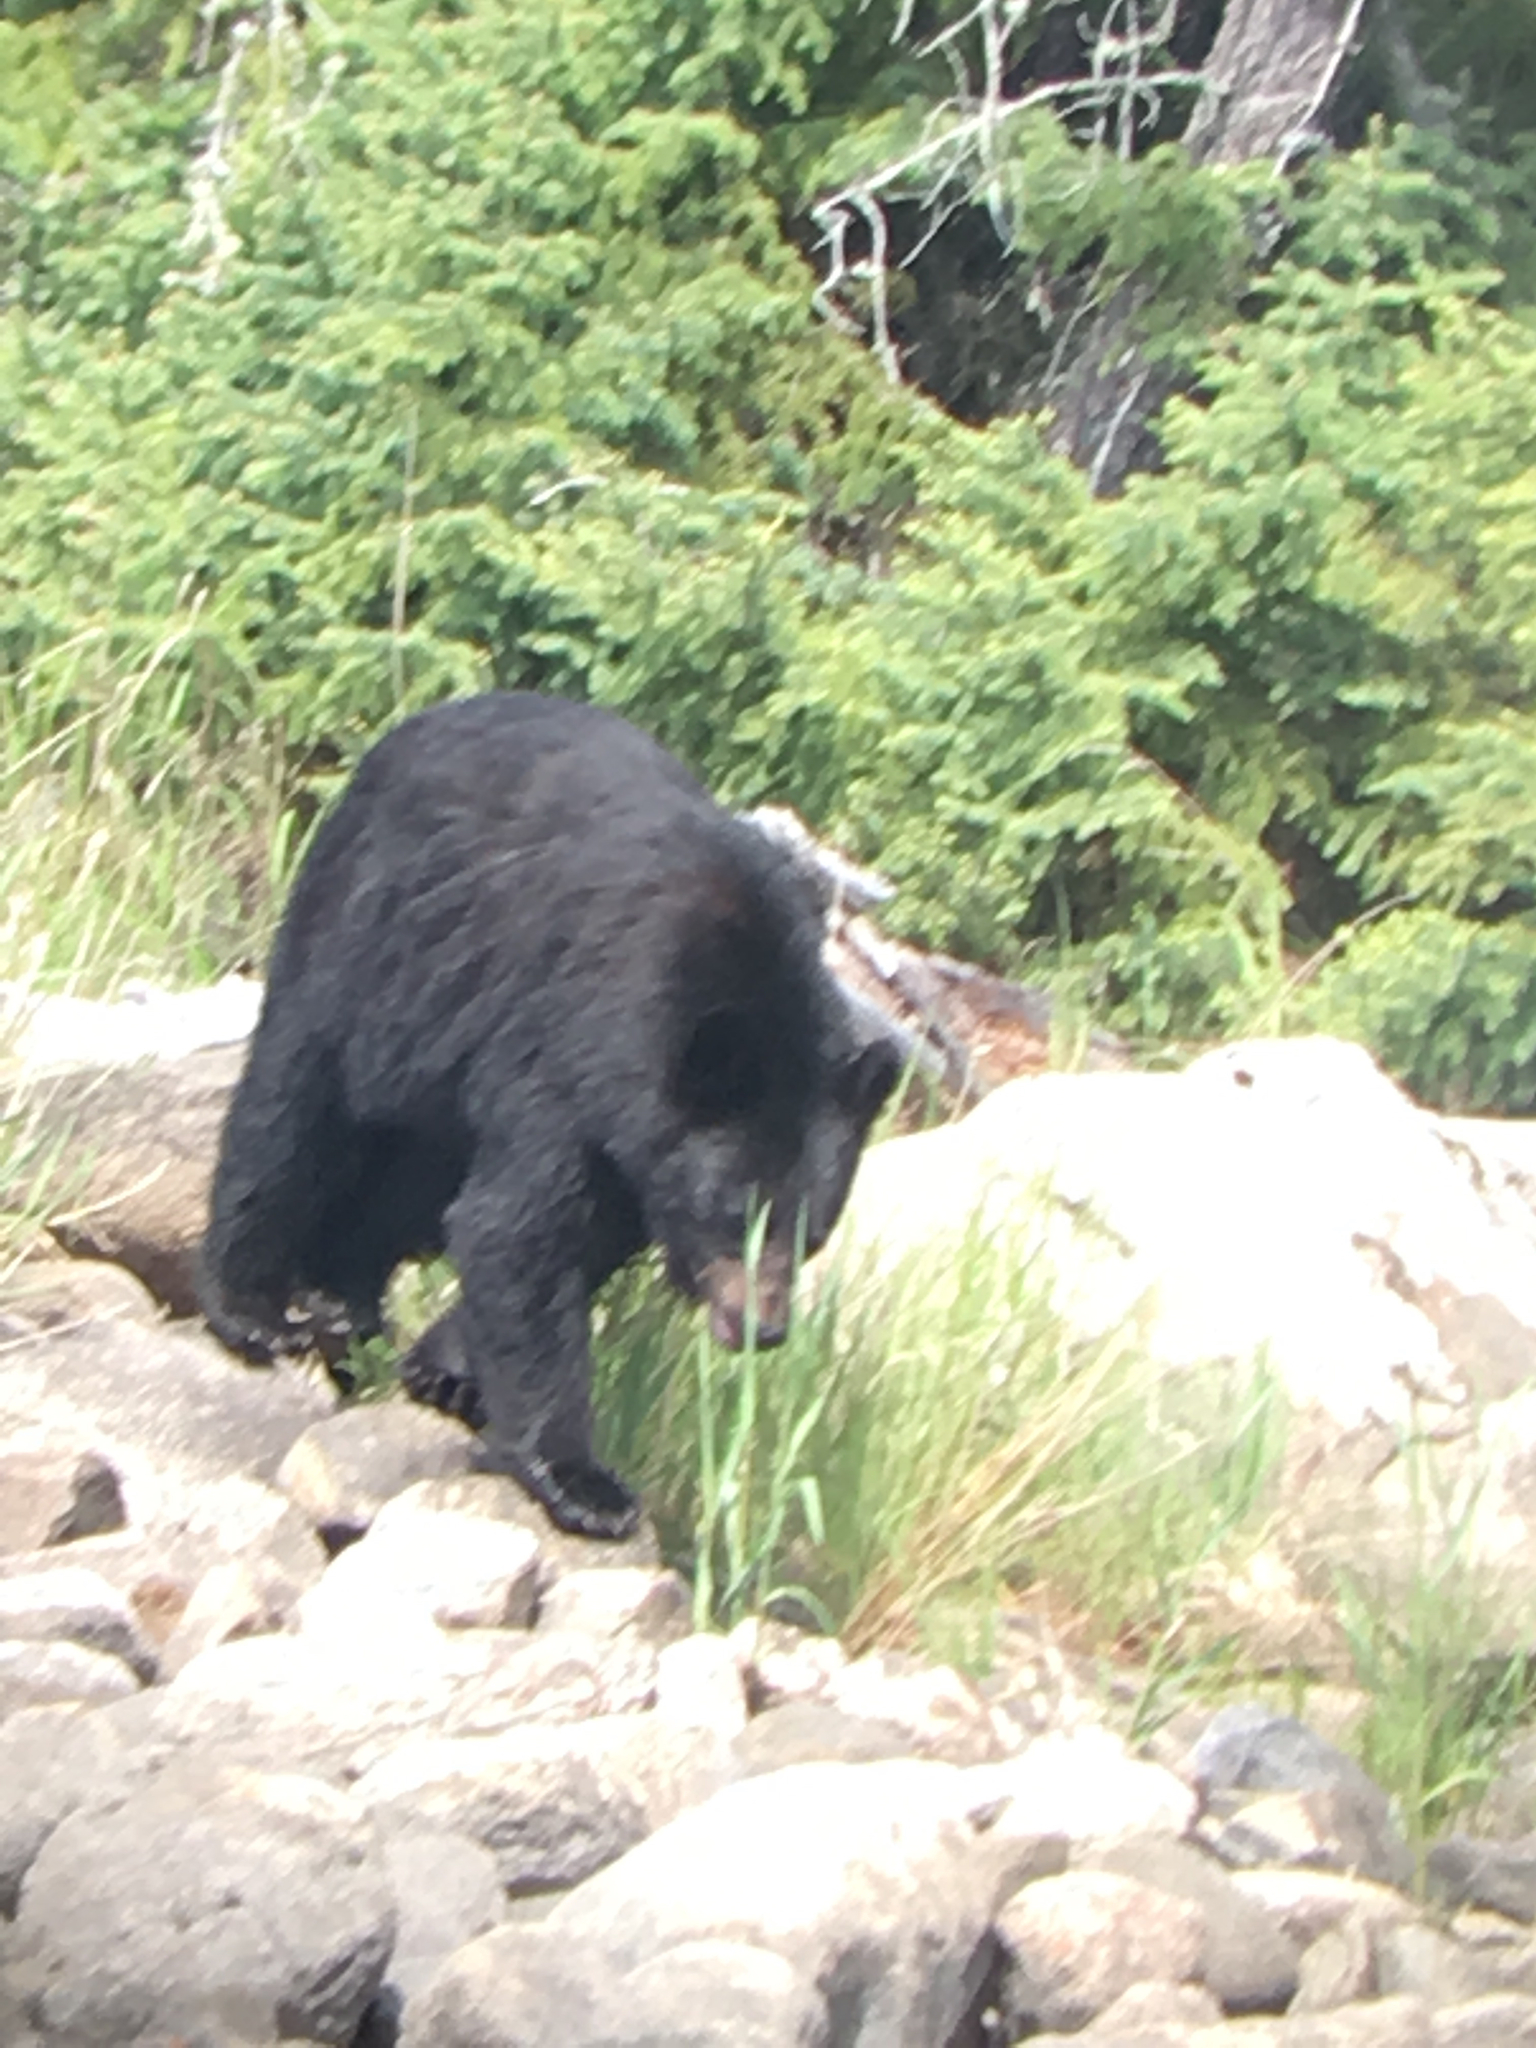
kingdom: Animalia
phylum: Chordata
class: Mammalia
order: Carnivora
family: Ursidae
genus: Ursus
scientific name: Ursus americanus
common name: American black bear
